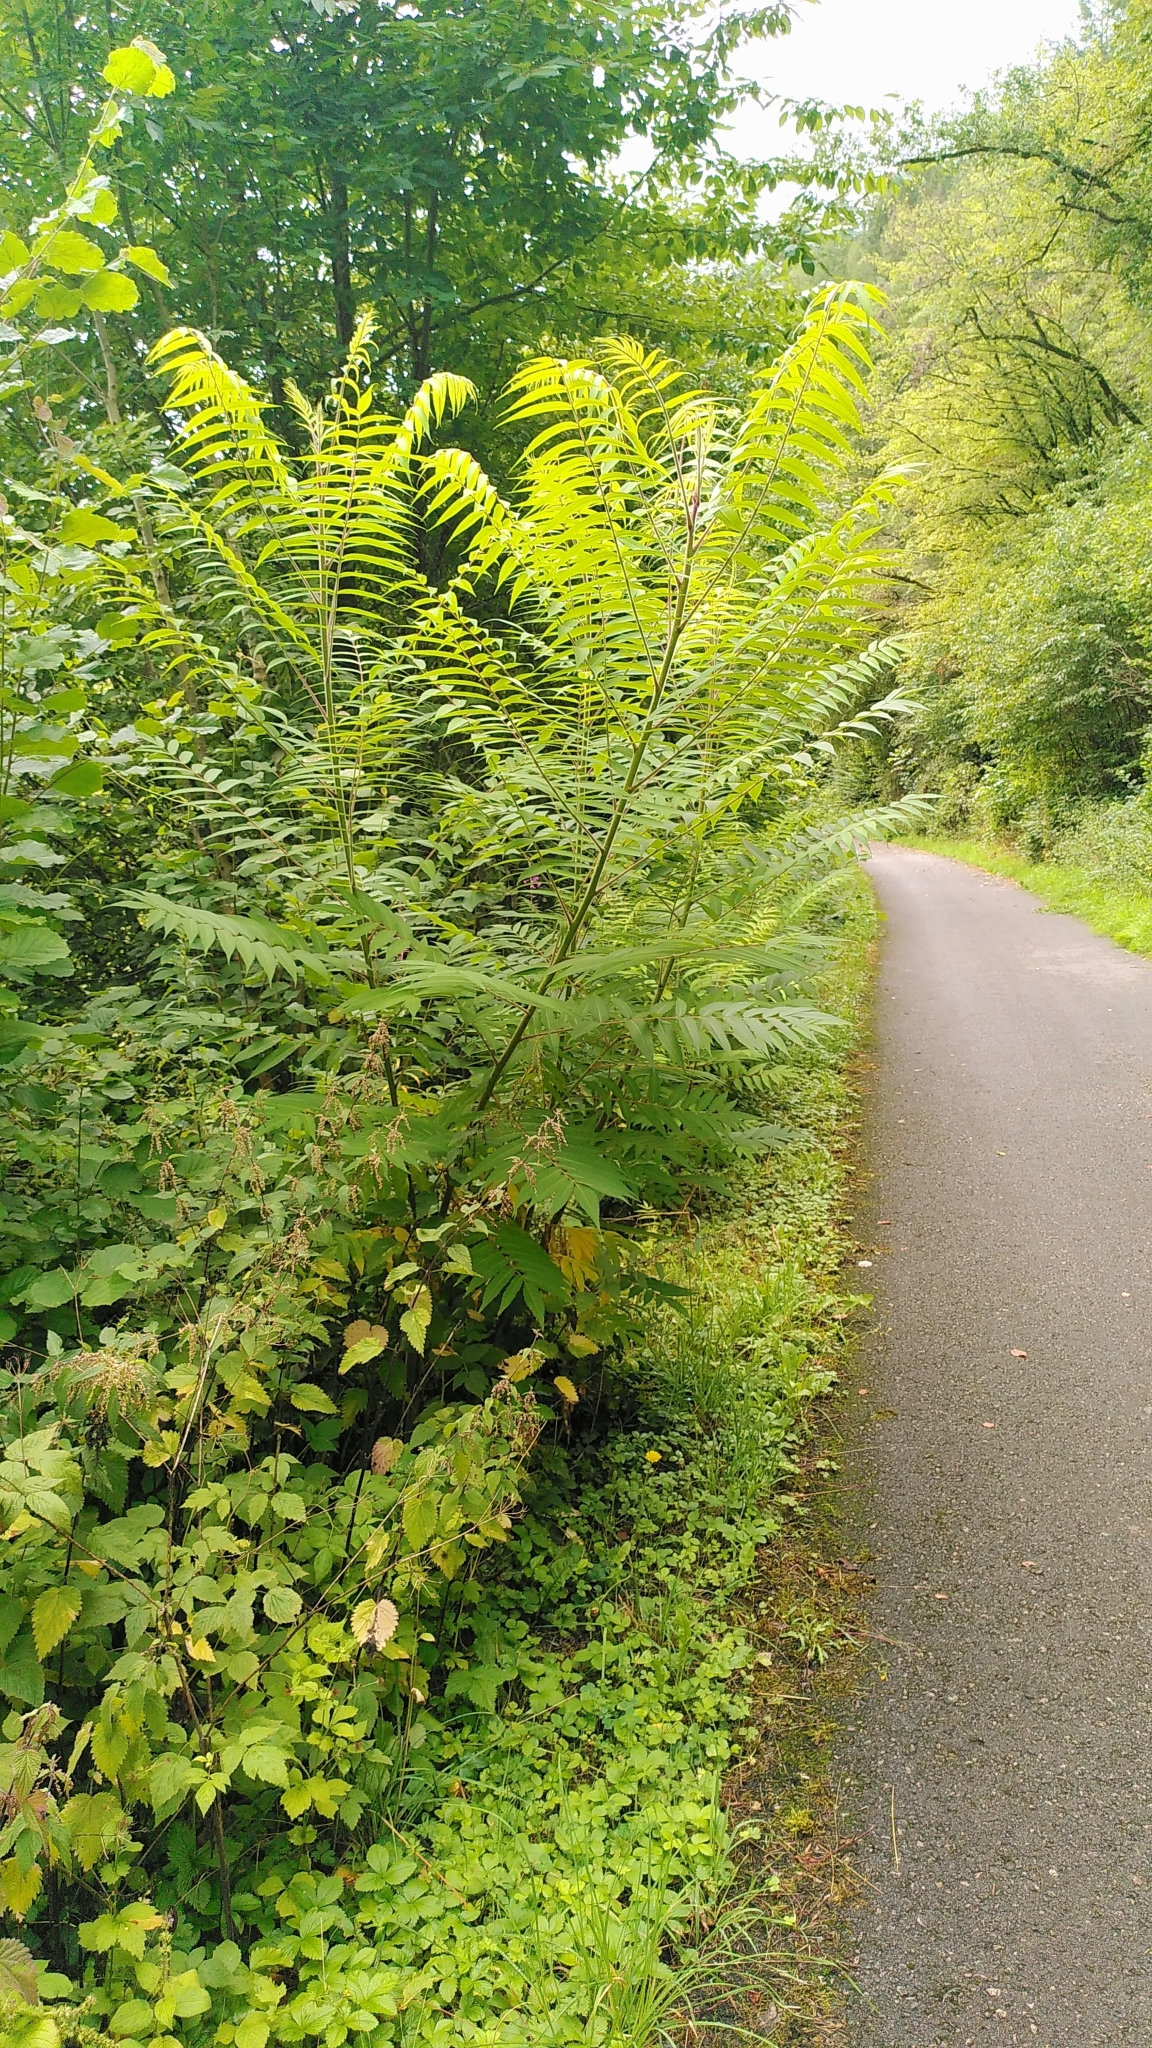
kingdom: Plantae
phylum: Tracheophyta
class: Magnoliopsida
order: Sapindales
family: Anacardiaceae
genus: Rhus
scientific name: Rhus typhina
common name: Staghorn sumac
